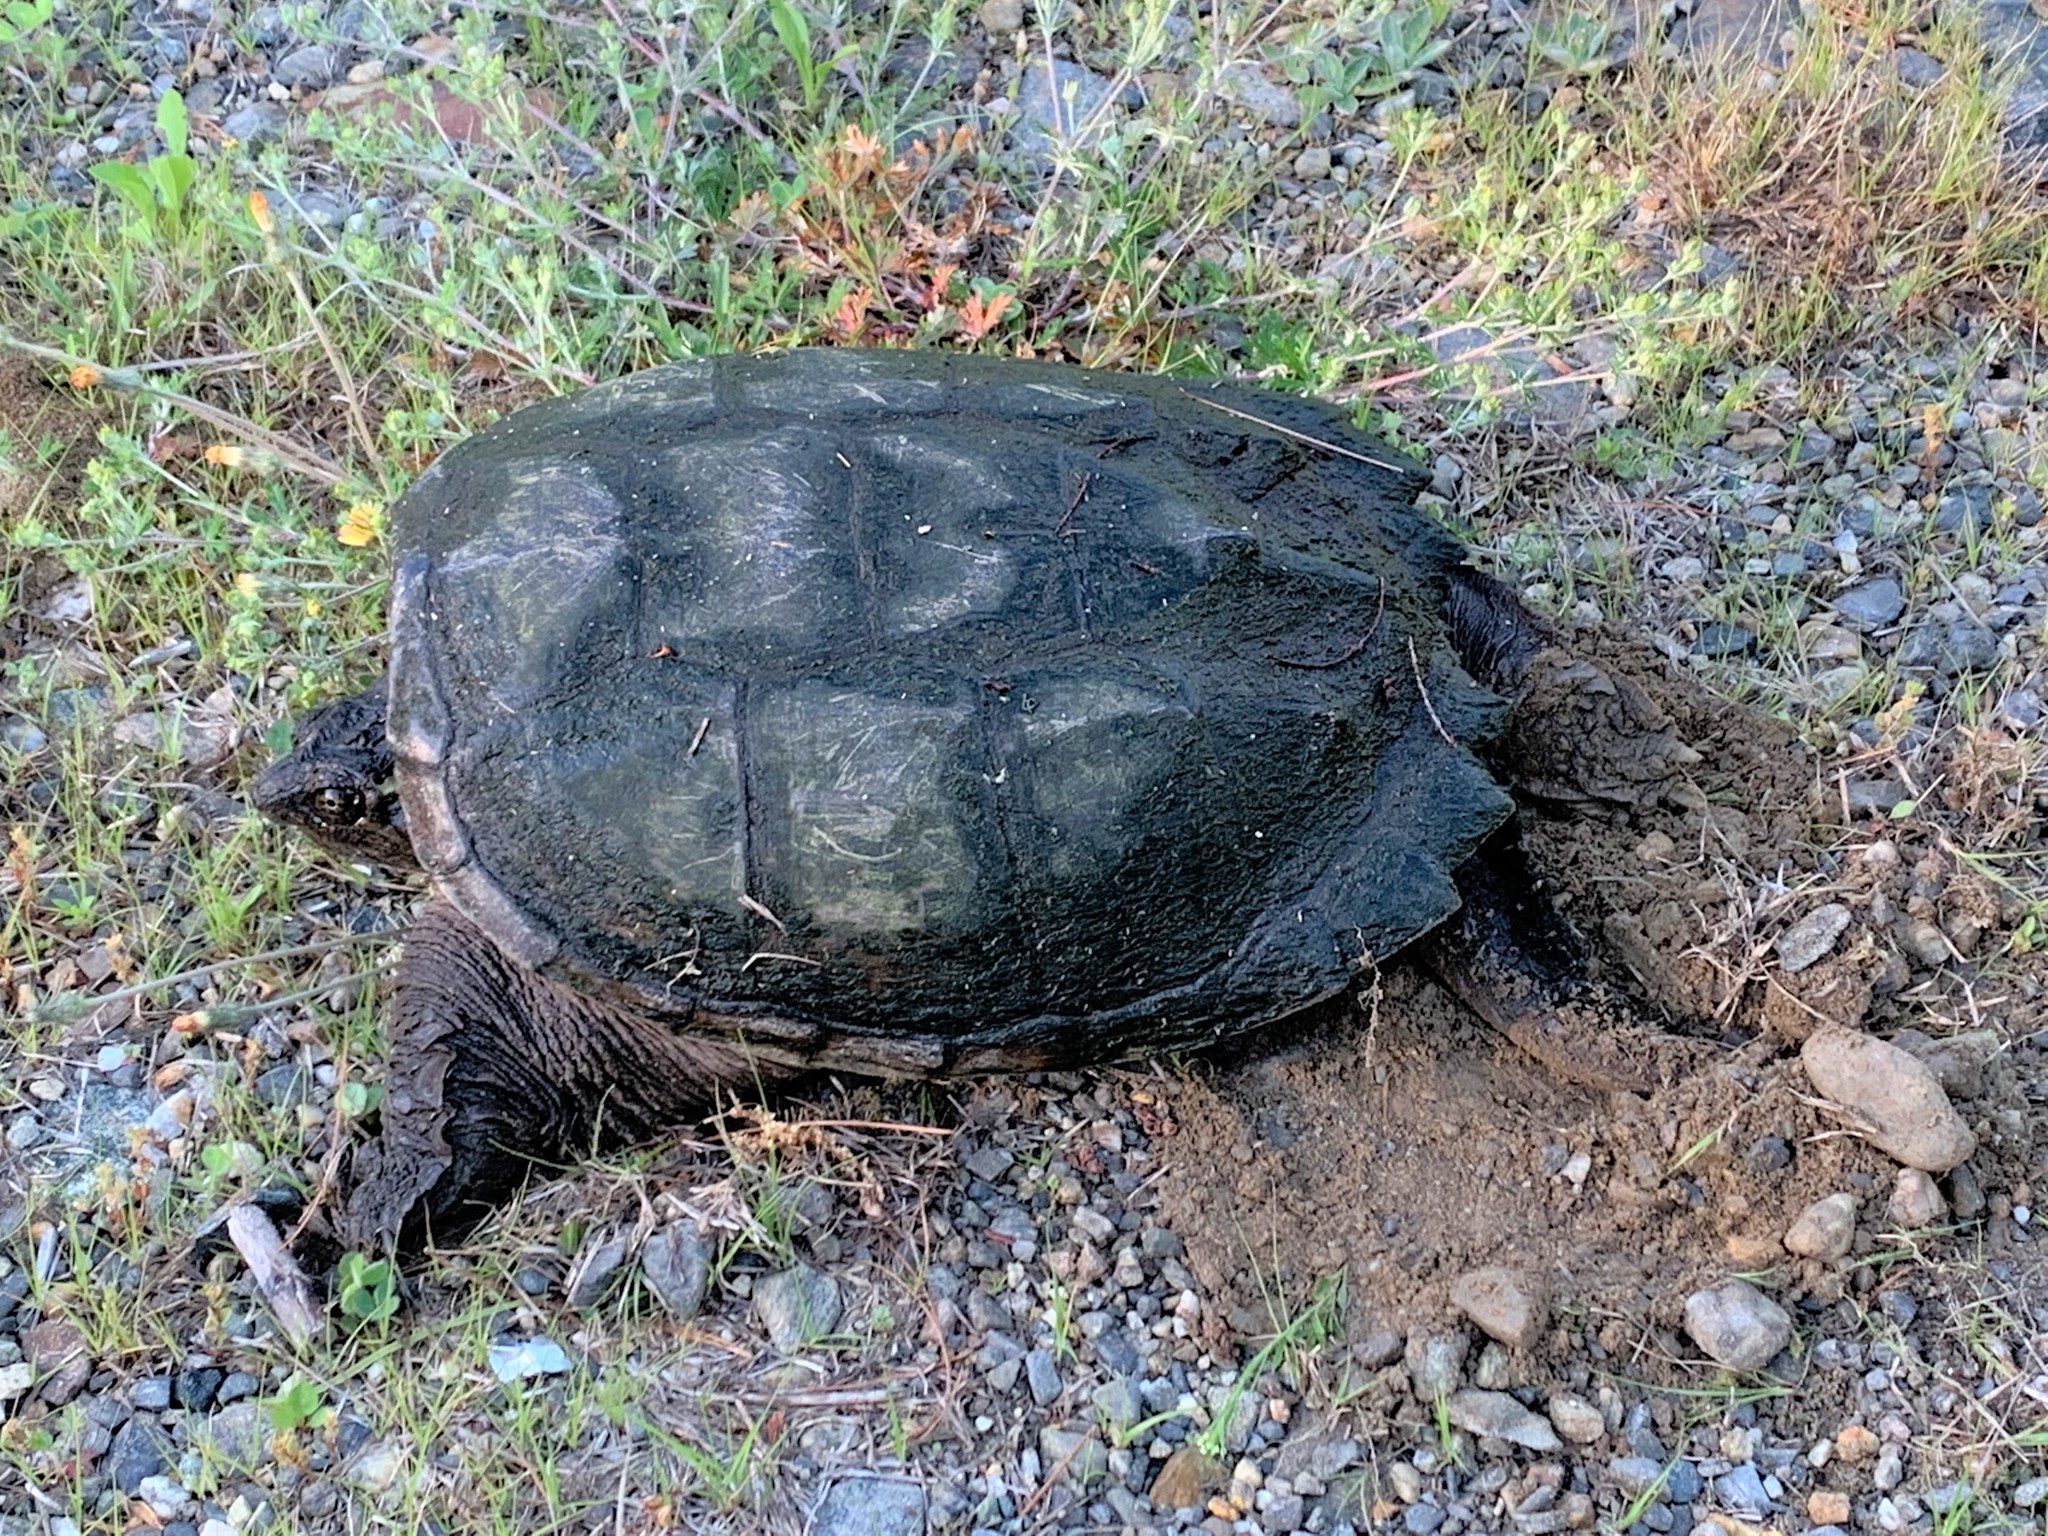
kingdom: Animalia
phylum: Chordata
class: Testudines
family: Chelydridae
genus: Chelydra
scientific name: Chelydra serpentina
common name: Common snapping turtle
